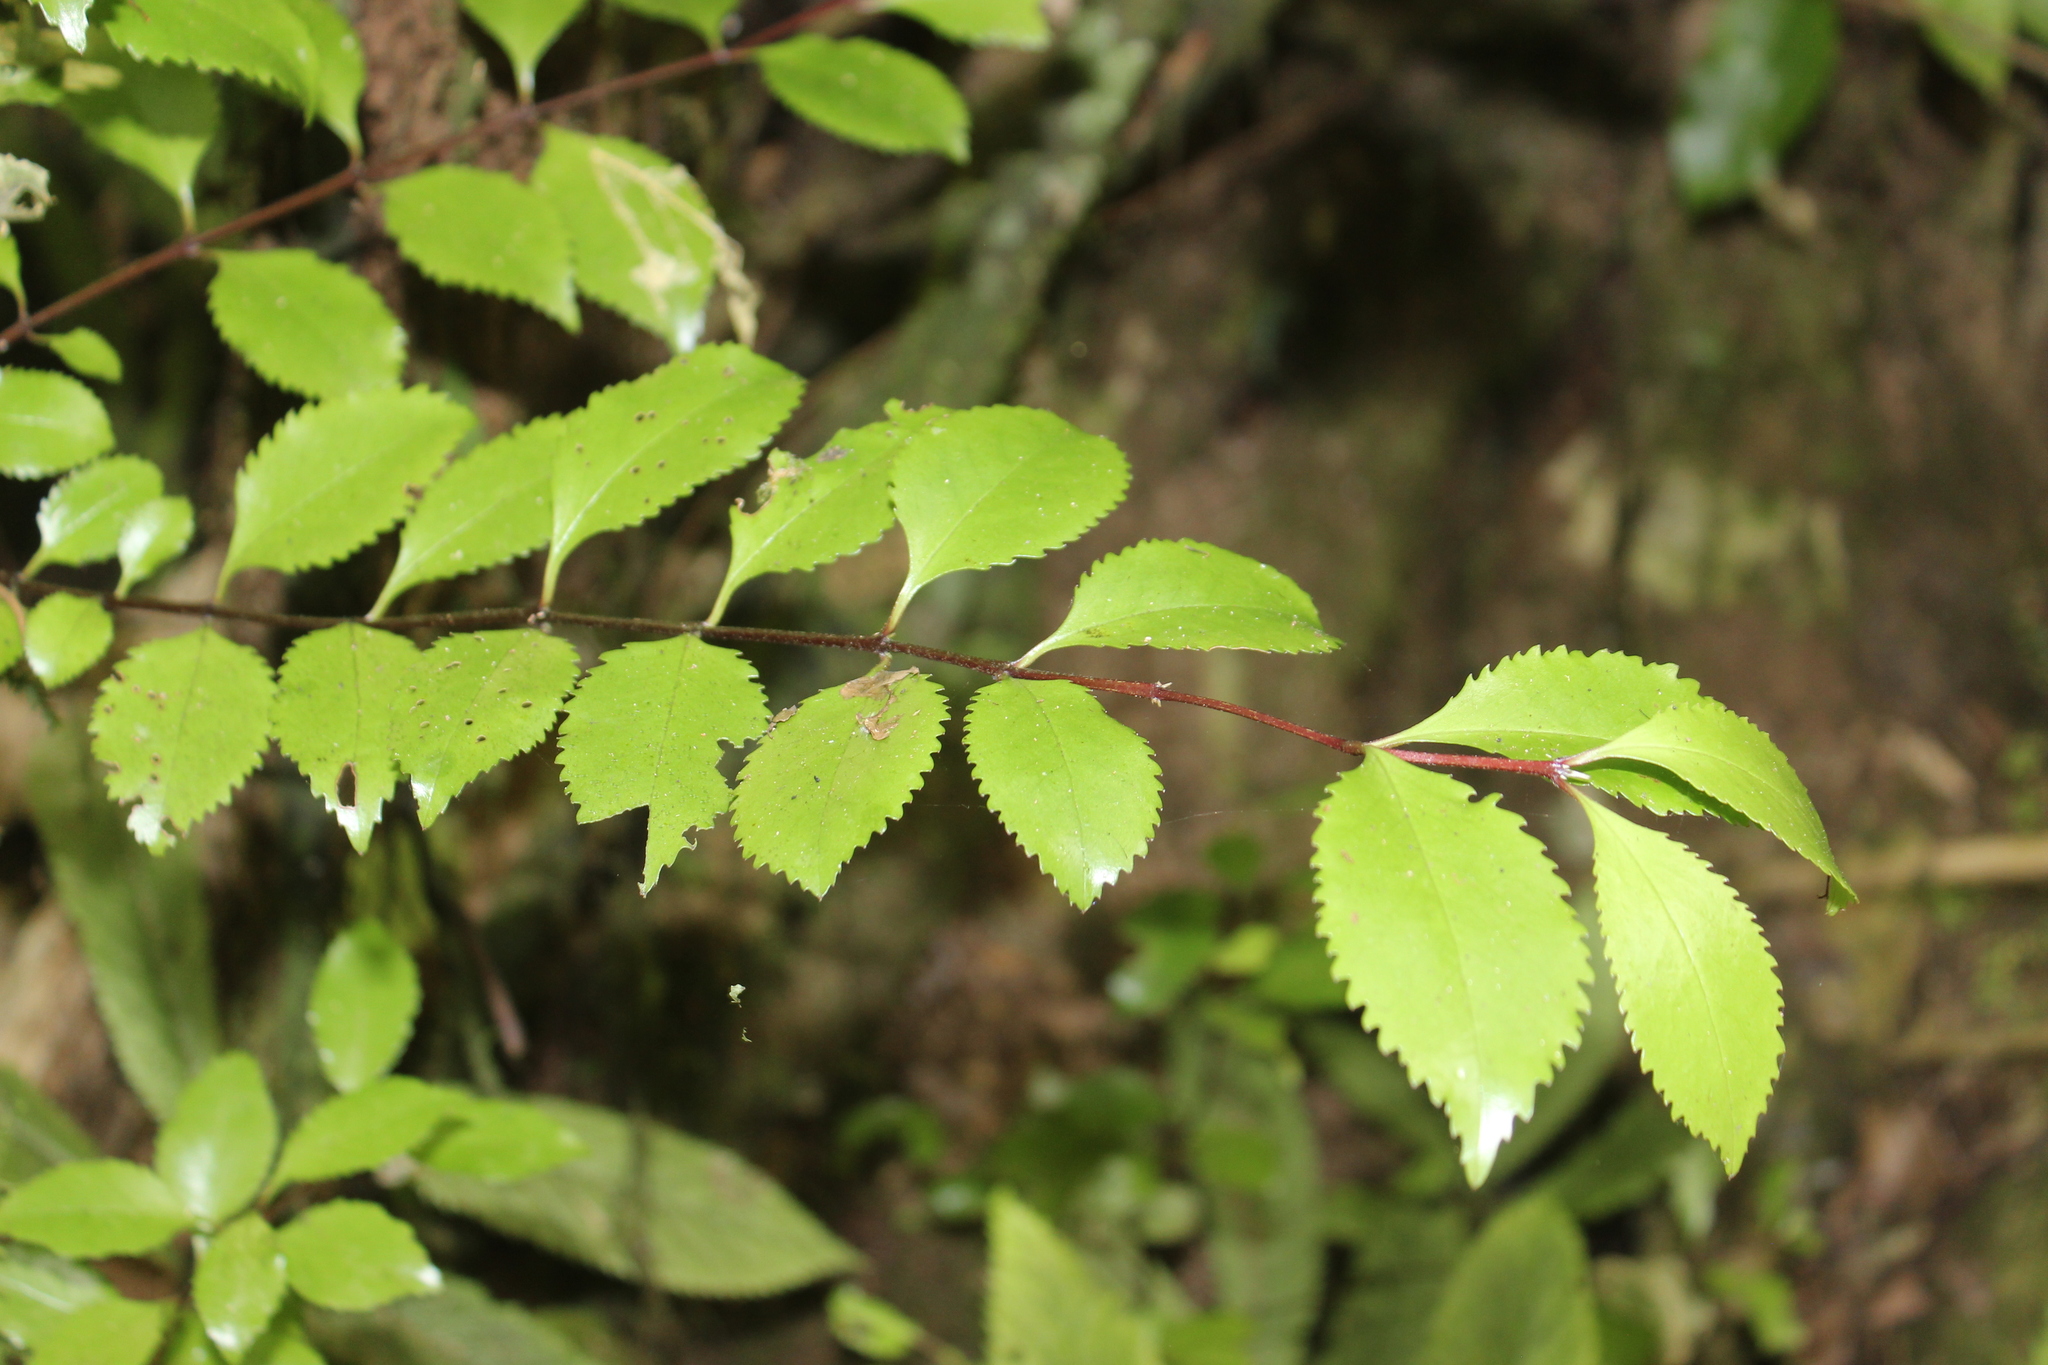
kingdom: Plantae
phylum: Tracheophyta
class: Magnoliopsida
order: Laurales
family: Atherospermataceae
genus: Laurelia
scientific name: Laurelia novae-zelandiae
